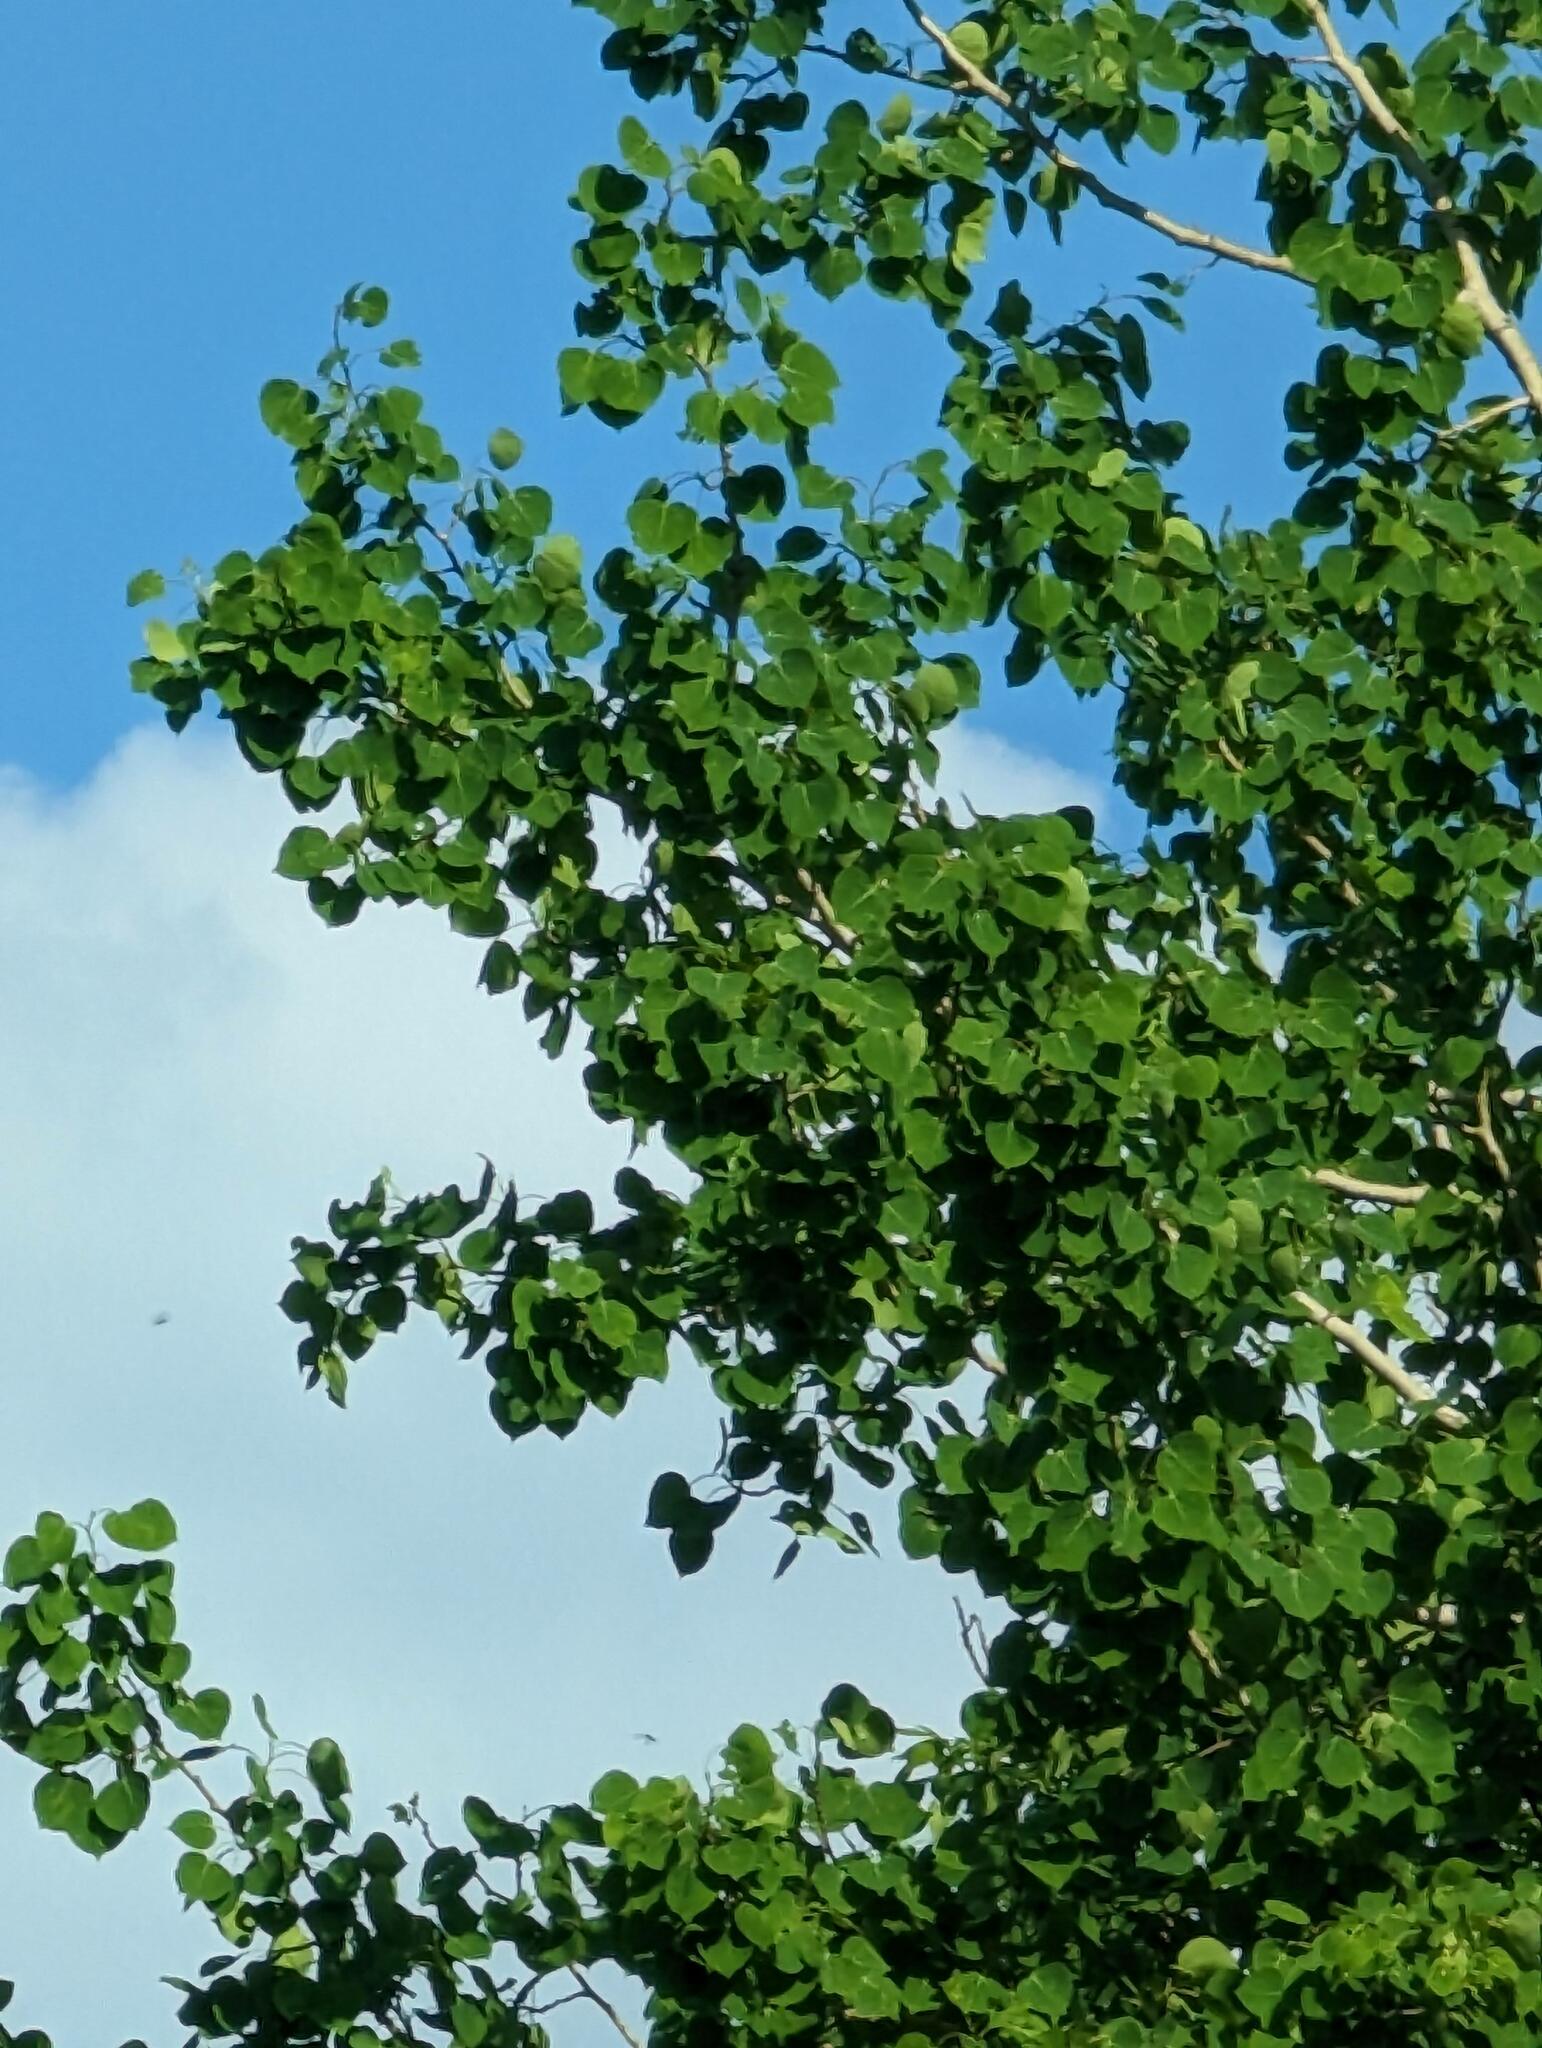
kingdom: Plantae
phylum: Tracheophyta
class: Magnoliopsida
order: Malpighiales
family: Salicaceae
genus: Populus
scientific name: Populus tremuloides
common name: Quaking aspen
